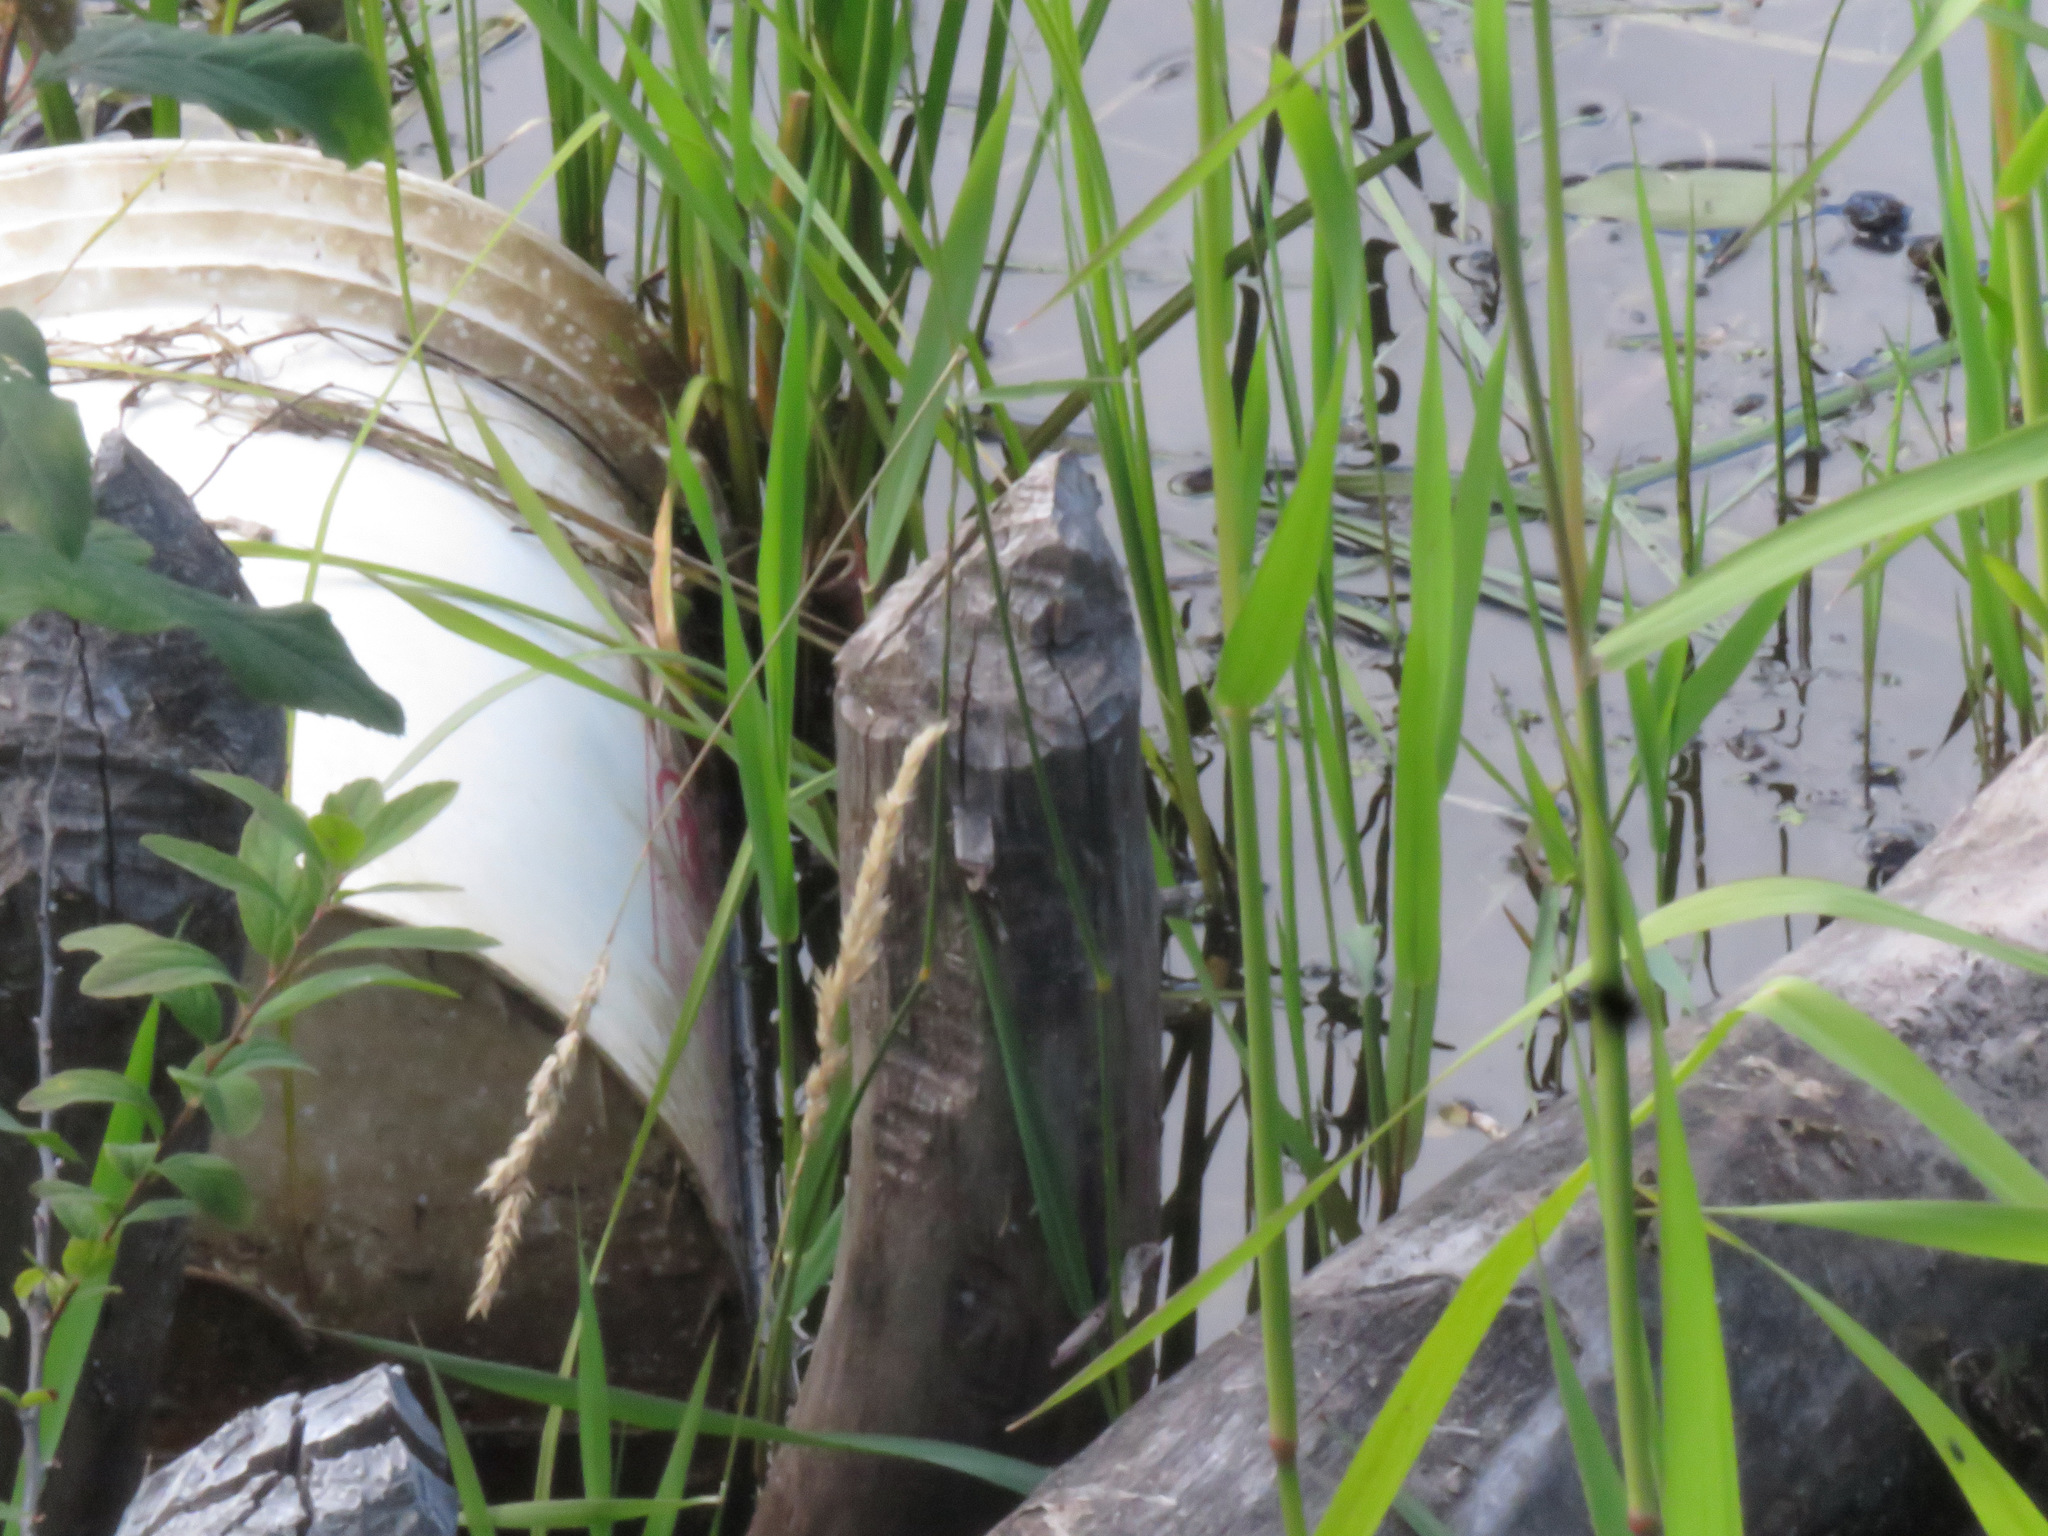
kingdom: Animalia
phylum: Chordata
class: Mammalia
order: Rodentia
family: Castoridae
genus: Castor
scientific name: Castor canadensis
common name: American beaver
